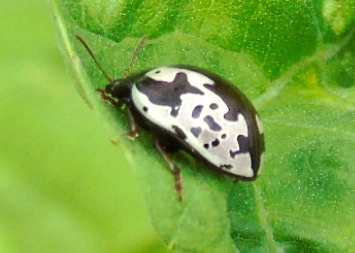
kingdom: Animalia
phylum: Arthropoda
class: Insecta
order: Coleoptera
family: Chrysomelidae
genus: Calligrapha
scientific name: Calligrapha intermedia
